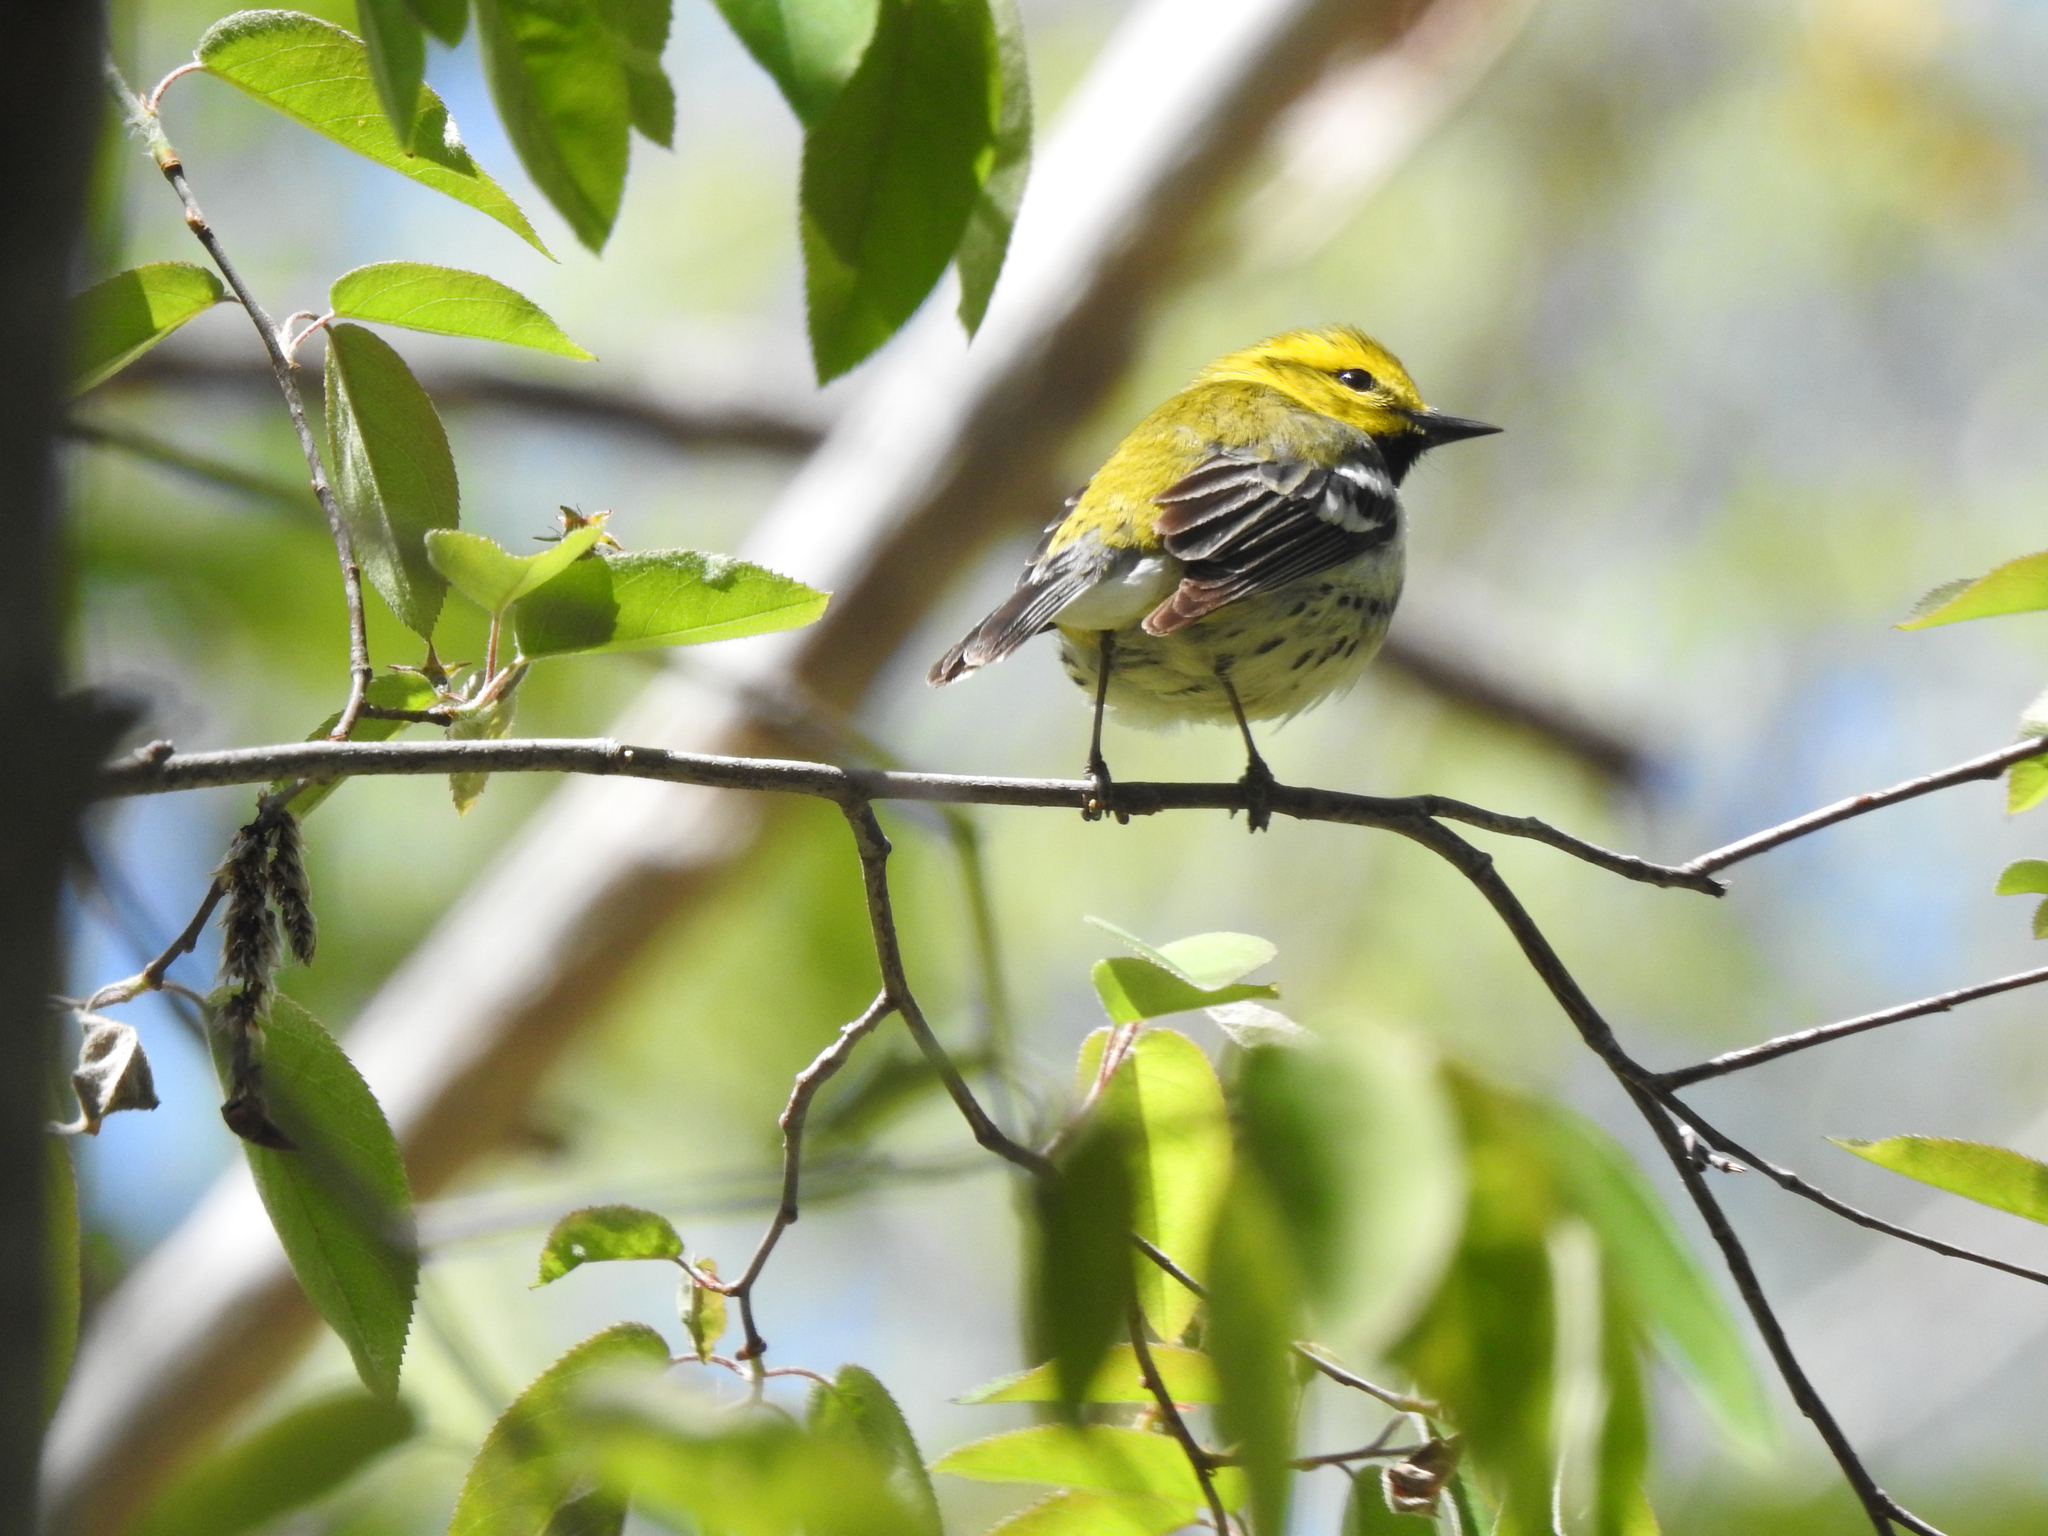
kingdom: Animalia
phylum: Chordata
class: Aves
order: Passeriformes
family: Parulidae
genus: Setophaga
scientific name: Setophaga virens
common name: Black-throated green warbler
